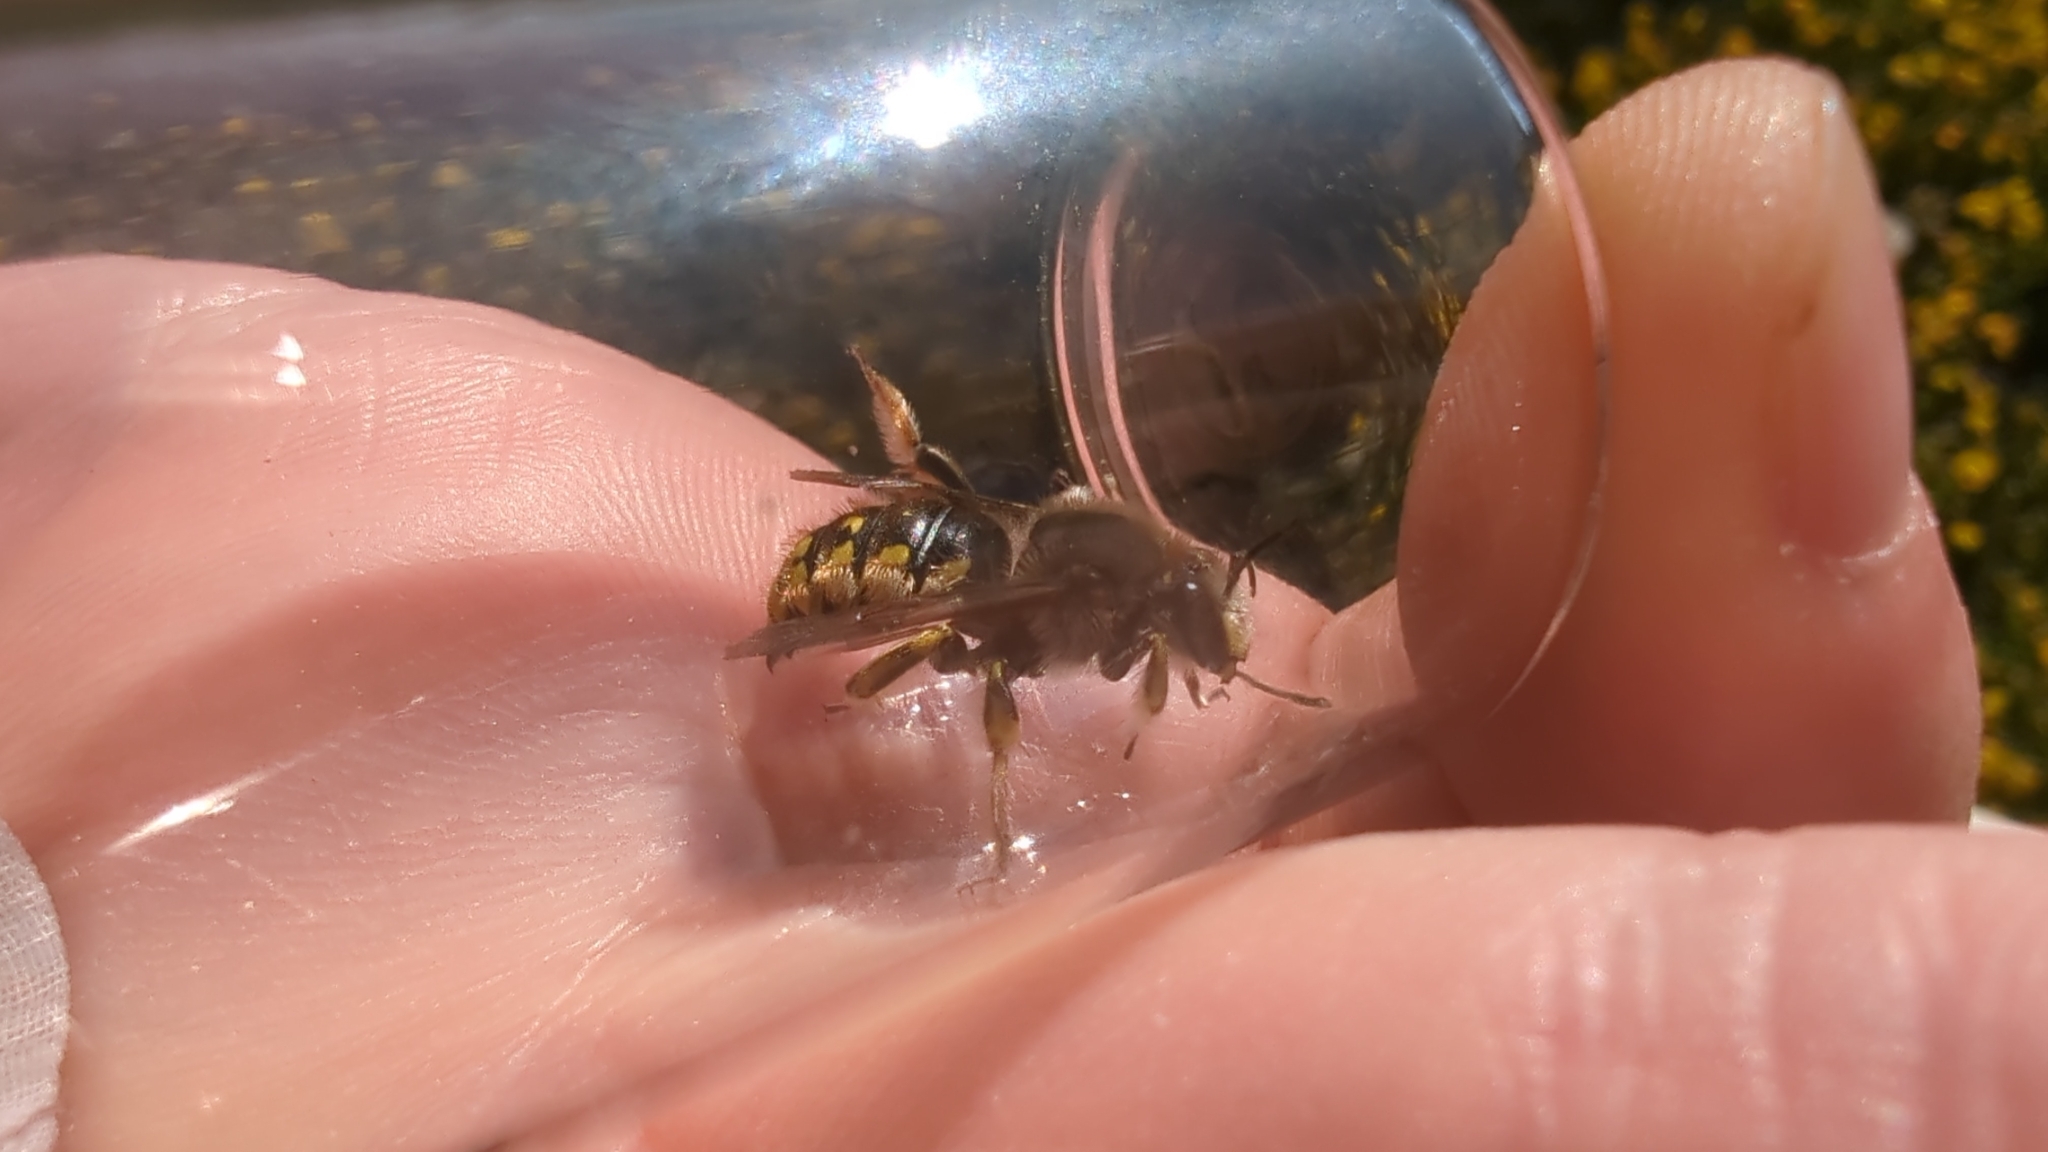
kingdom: Animalia
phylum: Arthropoda
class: Insecta
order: Hymenoptera
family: Megachilidae
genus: Anthidium
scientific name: Anthidium manicatum
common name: Wool carder bee
